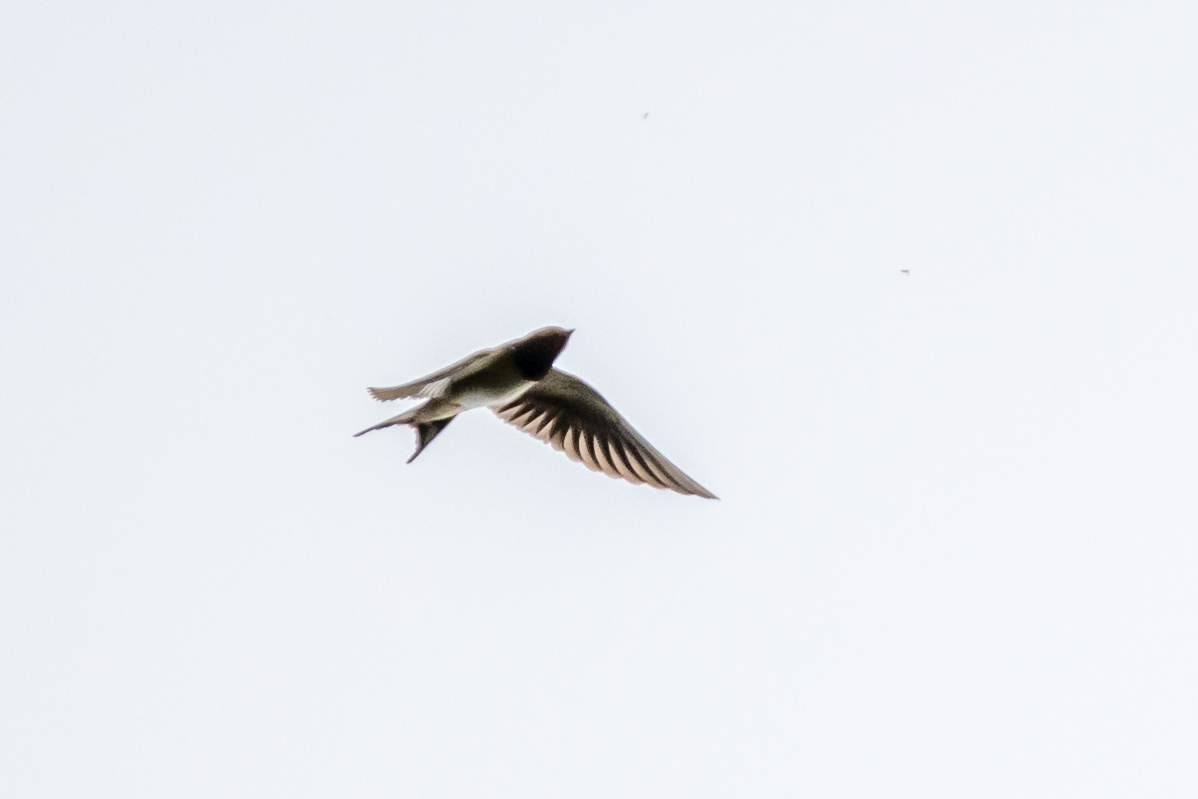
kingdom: Animalia
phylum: Chordata
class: Aves
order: Passeriformes
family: Hirundinidae
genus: Hirundo
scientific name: Hirundo rustica
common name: Barn swallow
